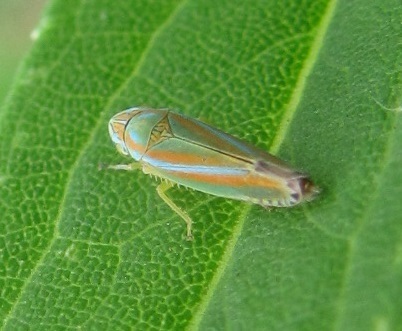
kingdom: Animalia
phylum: Arthropoda
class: Insecta
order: Hemiptera
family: Cicadellidae
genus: Graphocephala
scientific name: Graphocephala versuta
